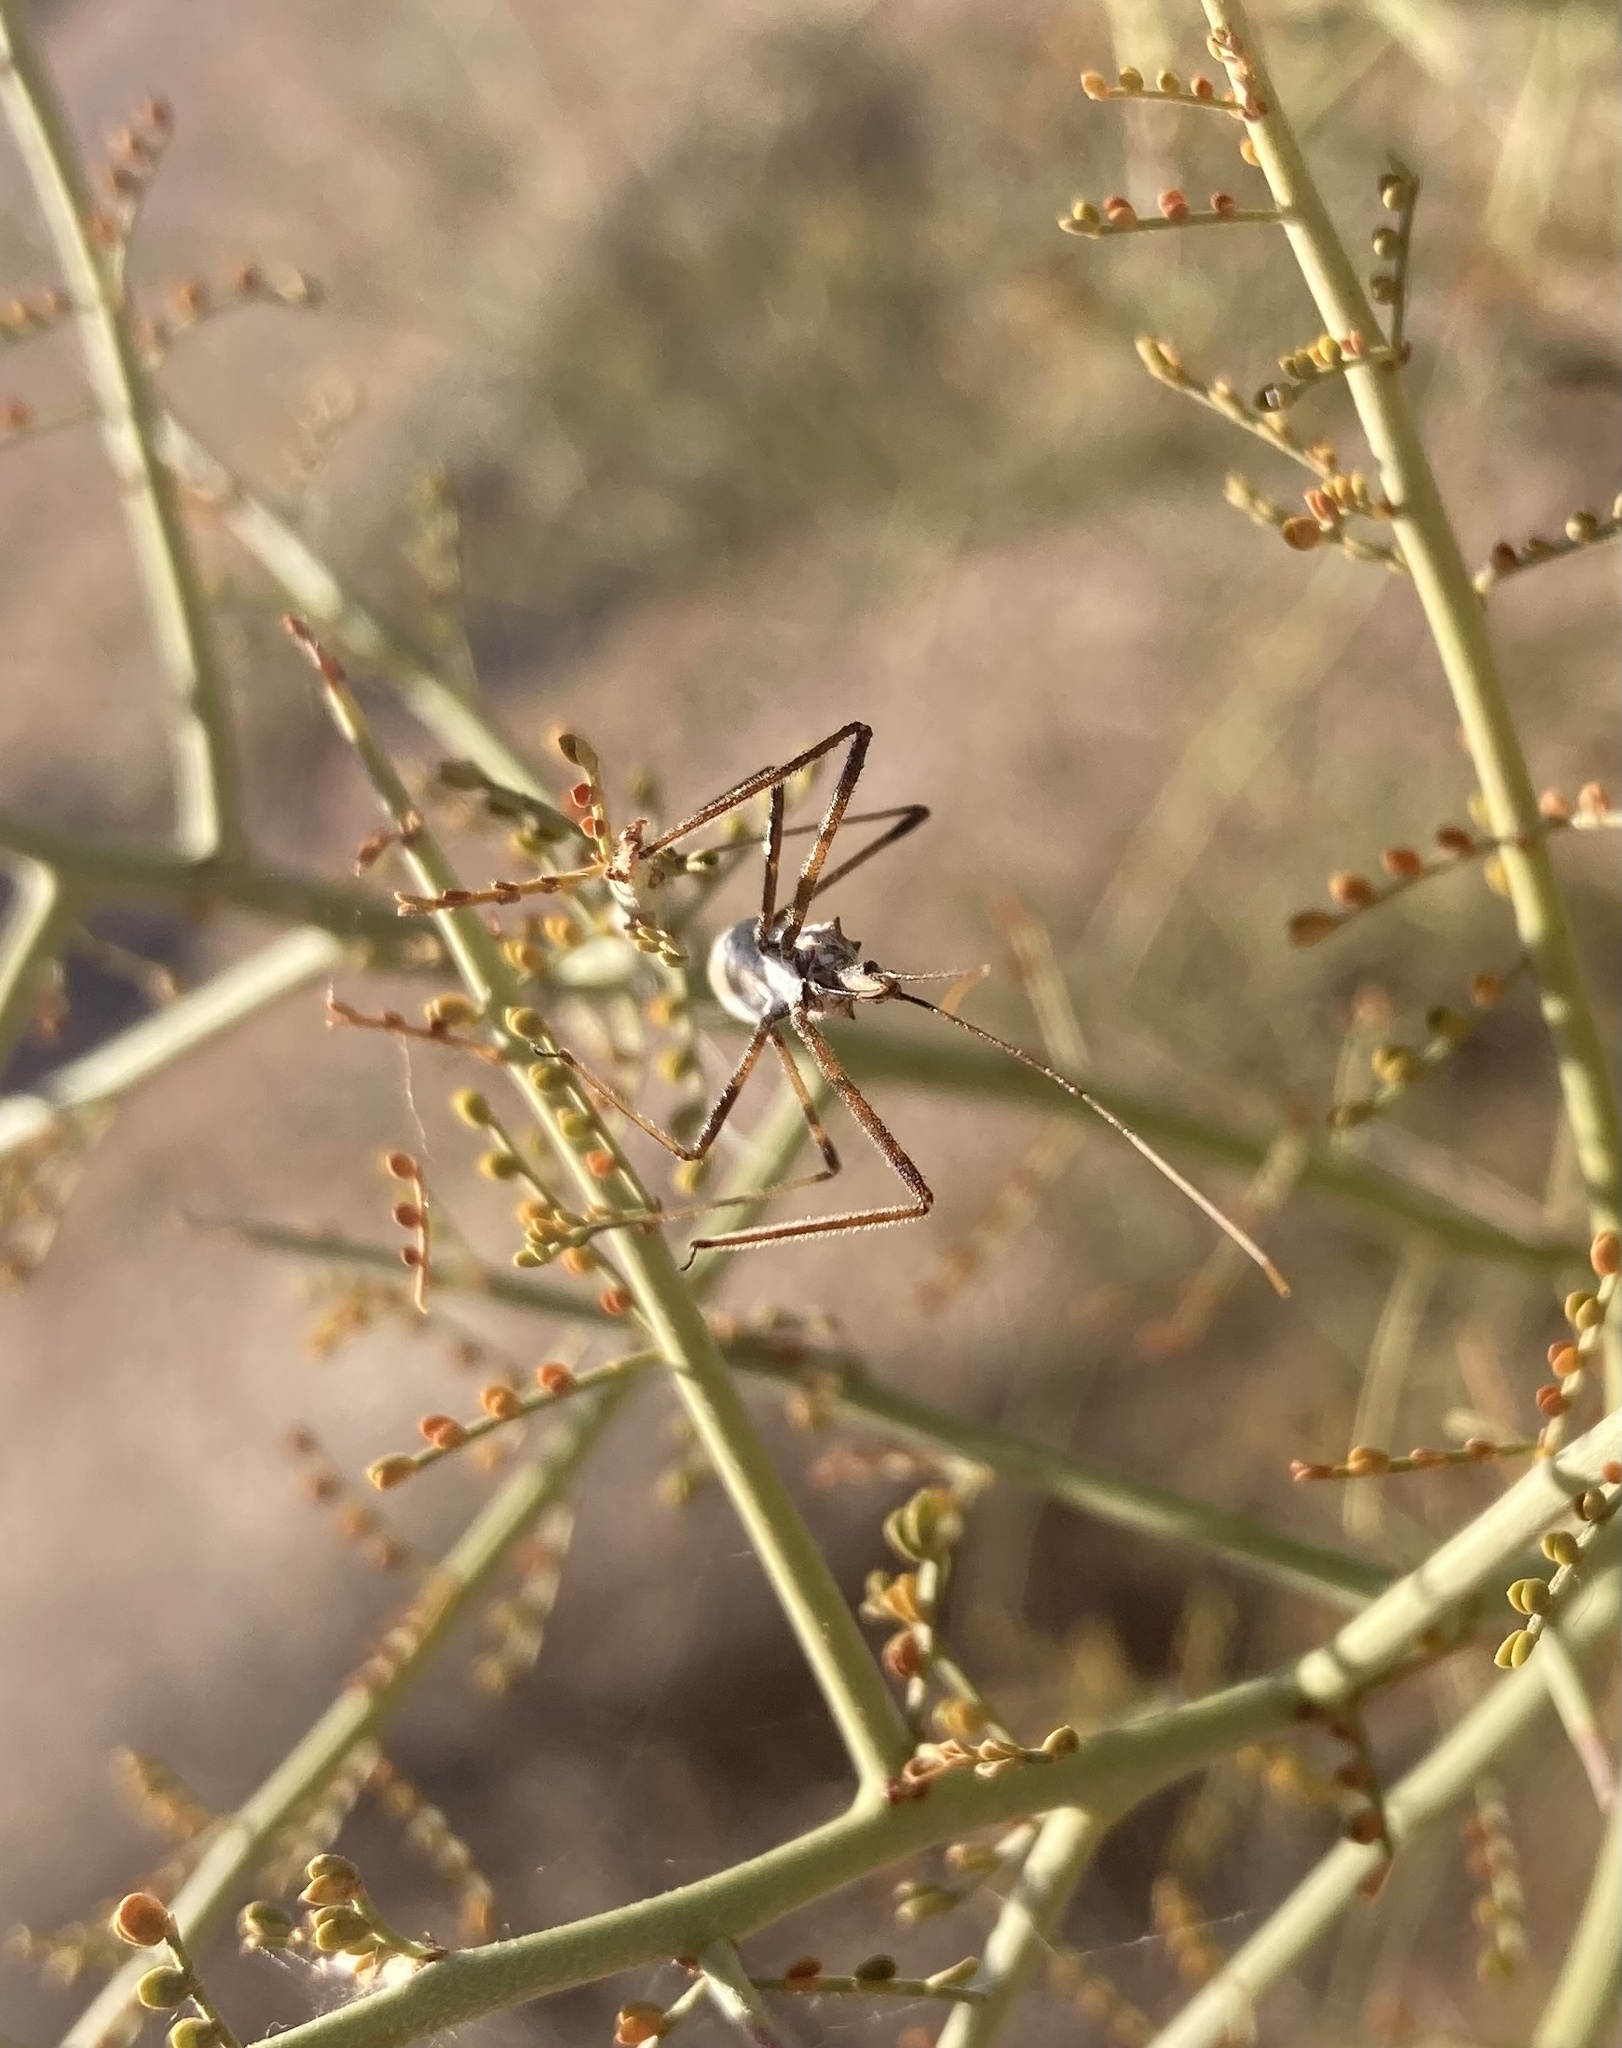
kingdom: Animalia
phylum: Arthropoda
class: Insecta
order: Hemiptera
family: Reduviidae
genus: Zelus
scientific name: Zelus tetracanthus
